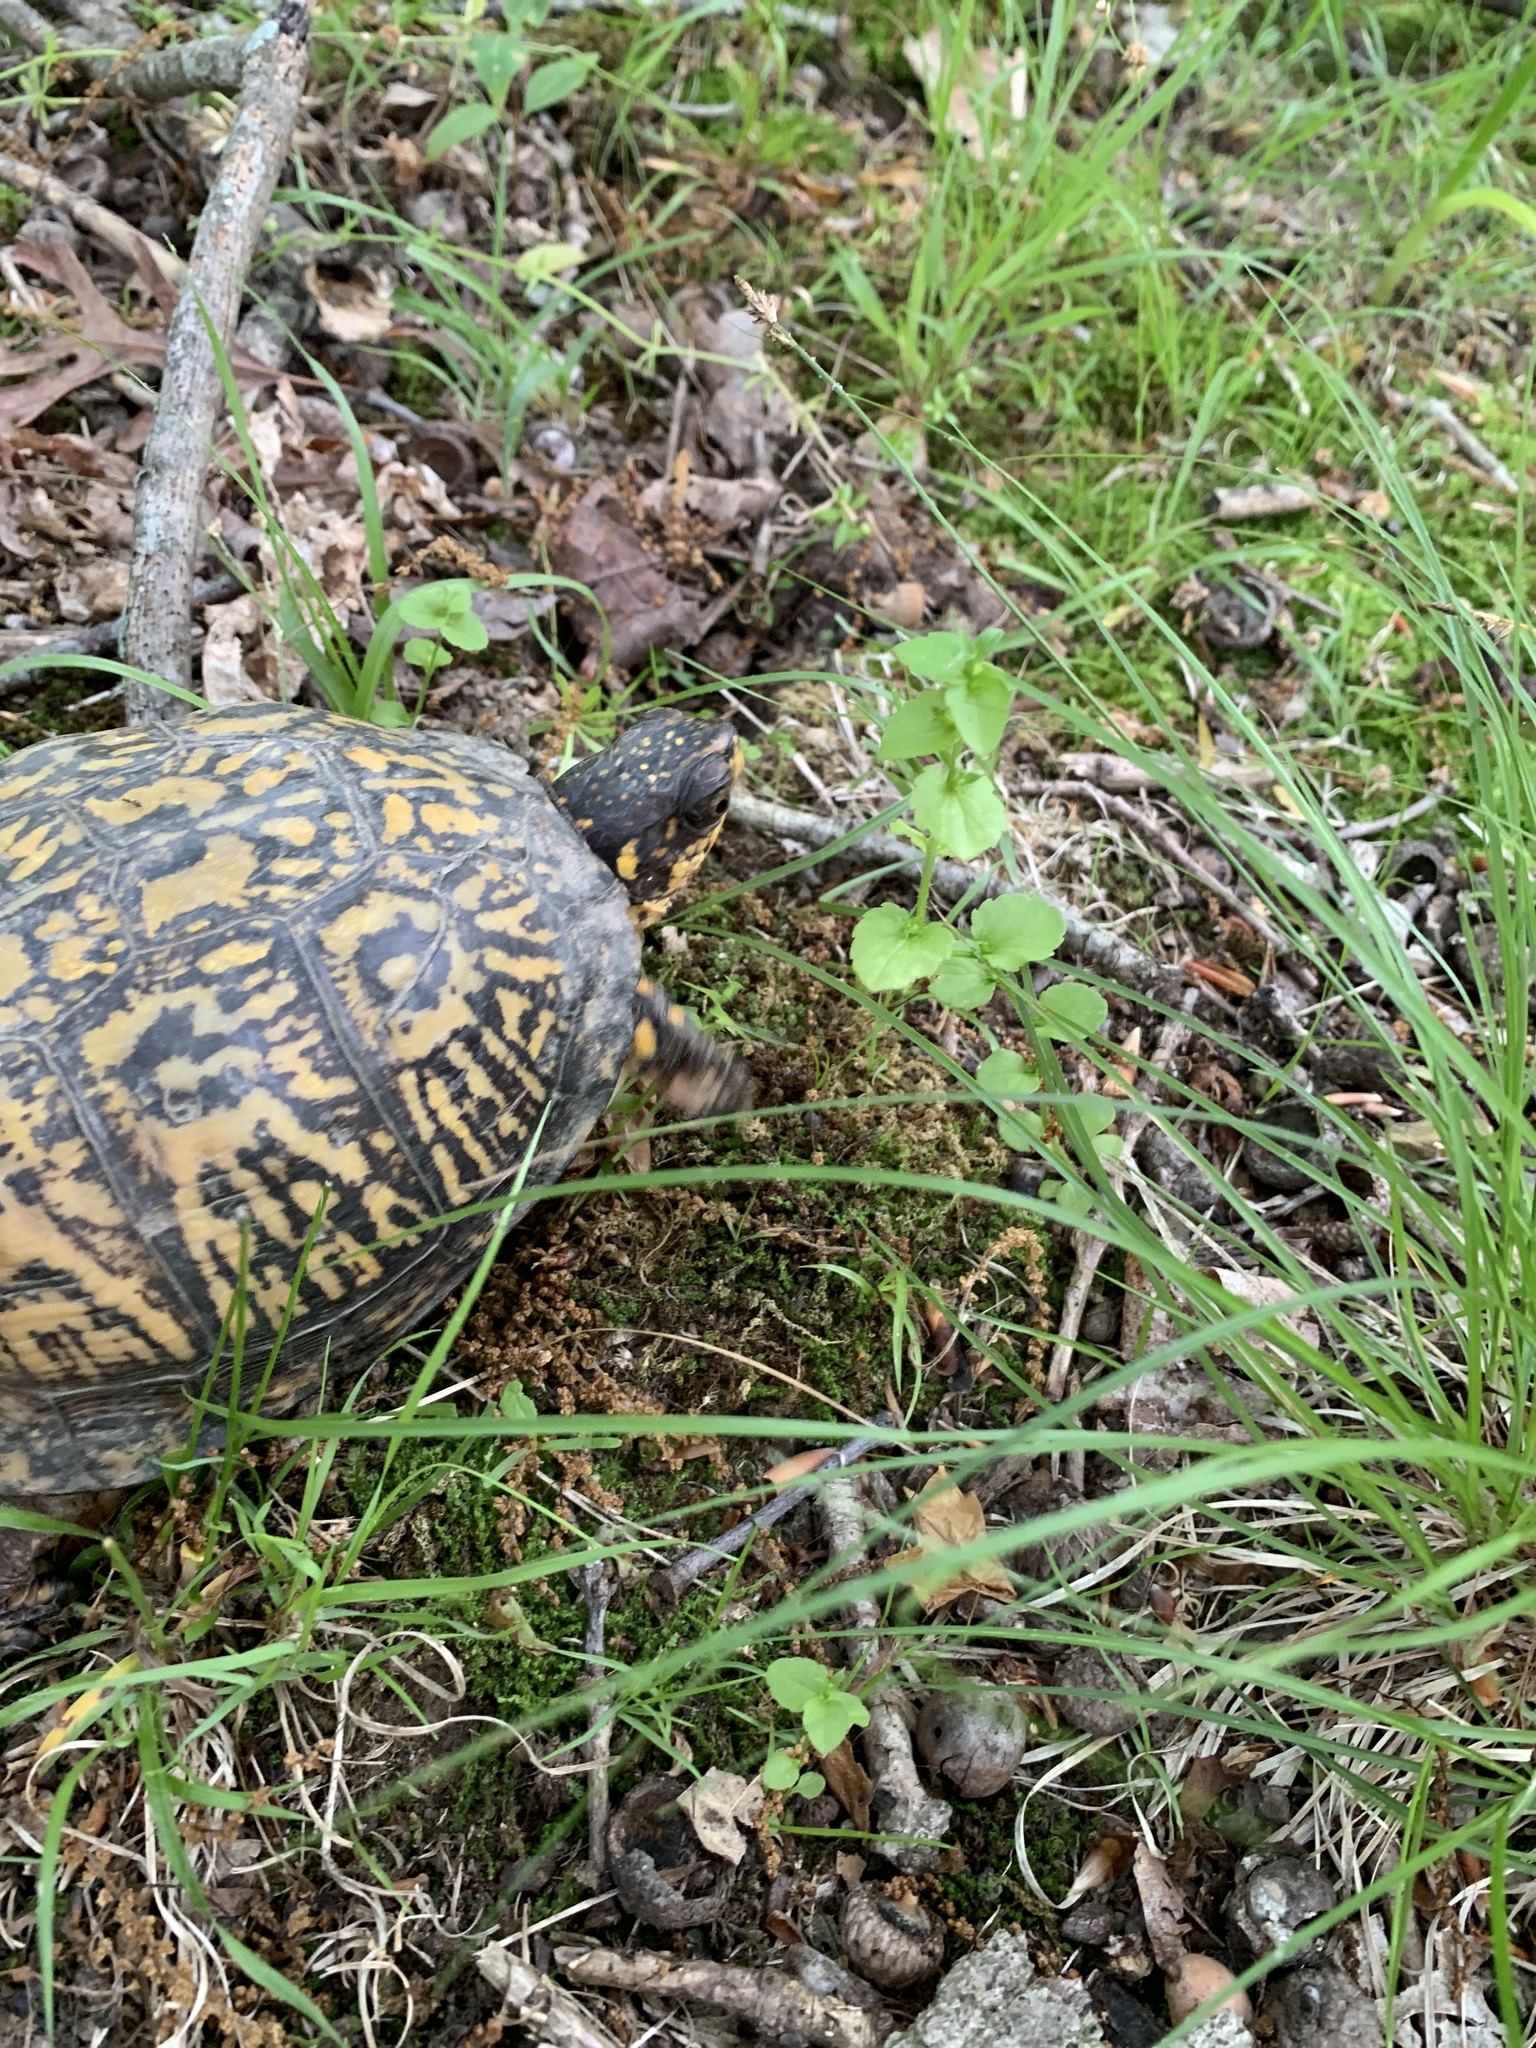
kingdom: Animalia
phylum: Chordata
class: Testudines
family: Emydidae
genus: Terrapene
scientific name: Terrapene carolina
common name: Common box turtle
